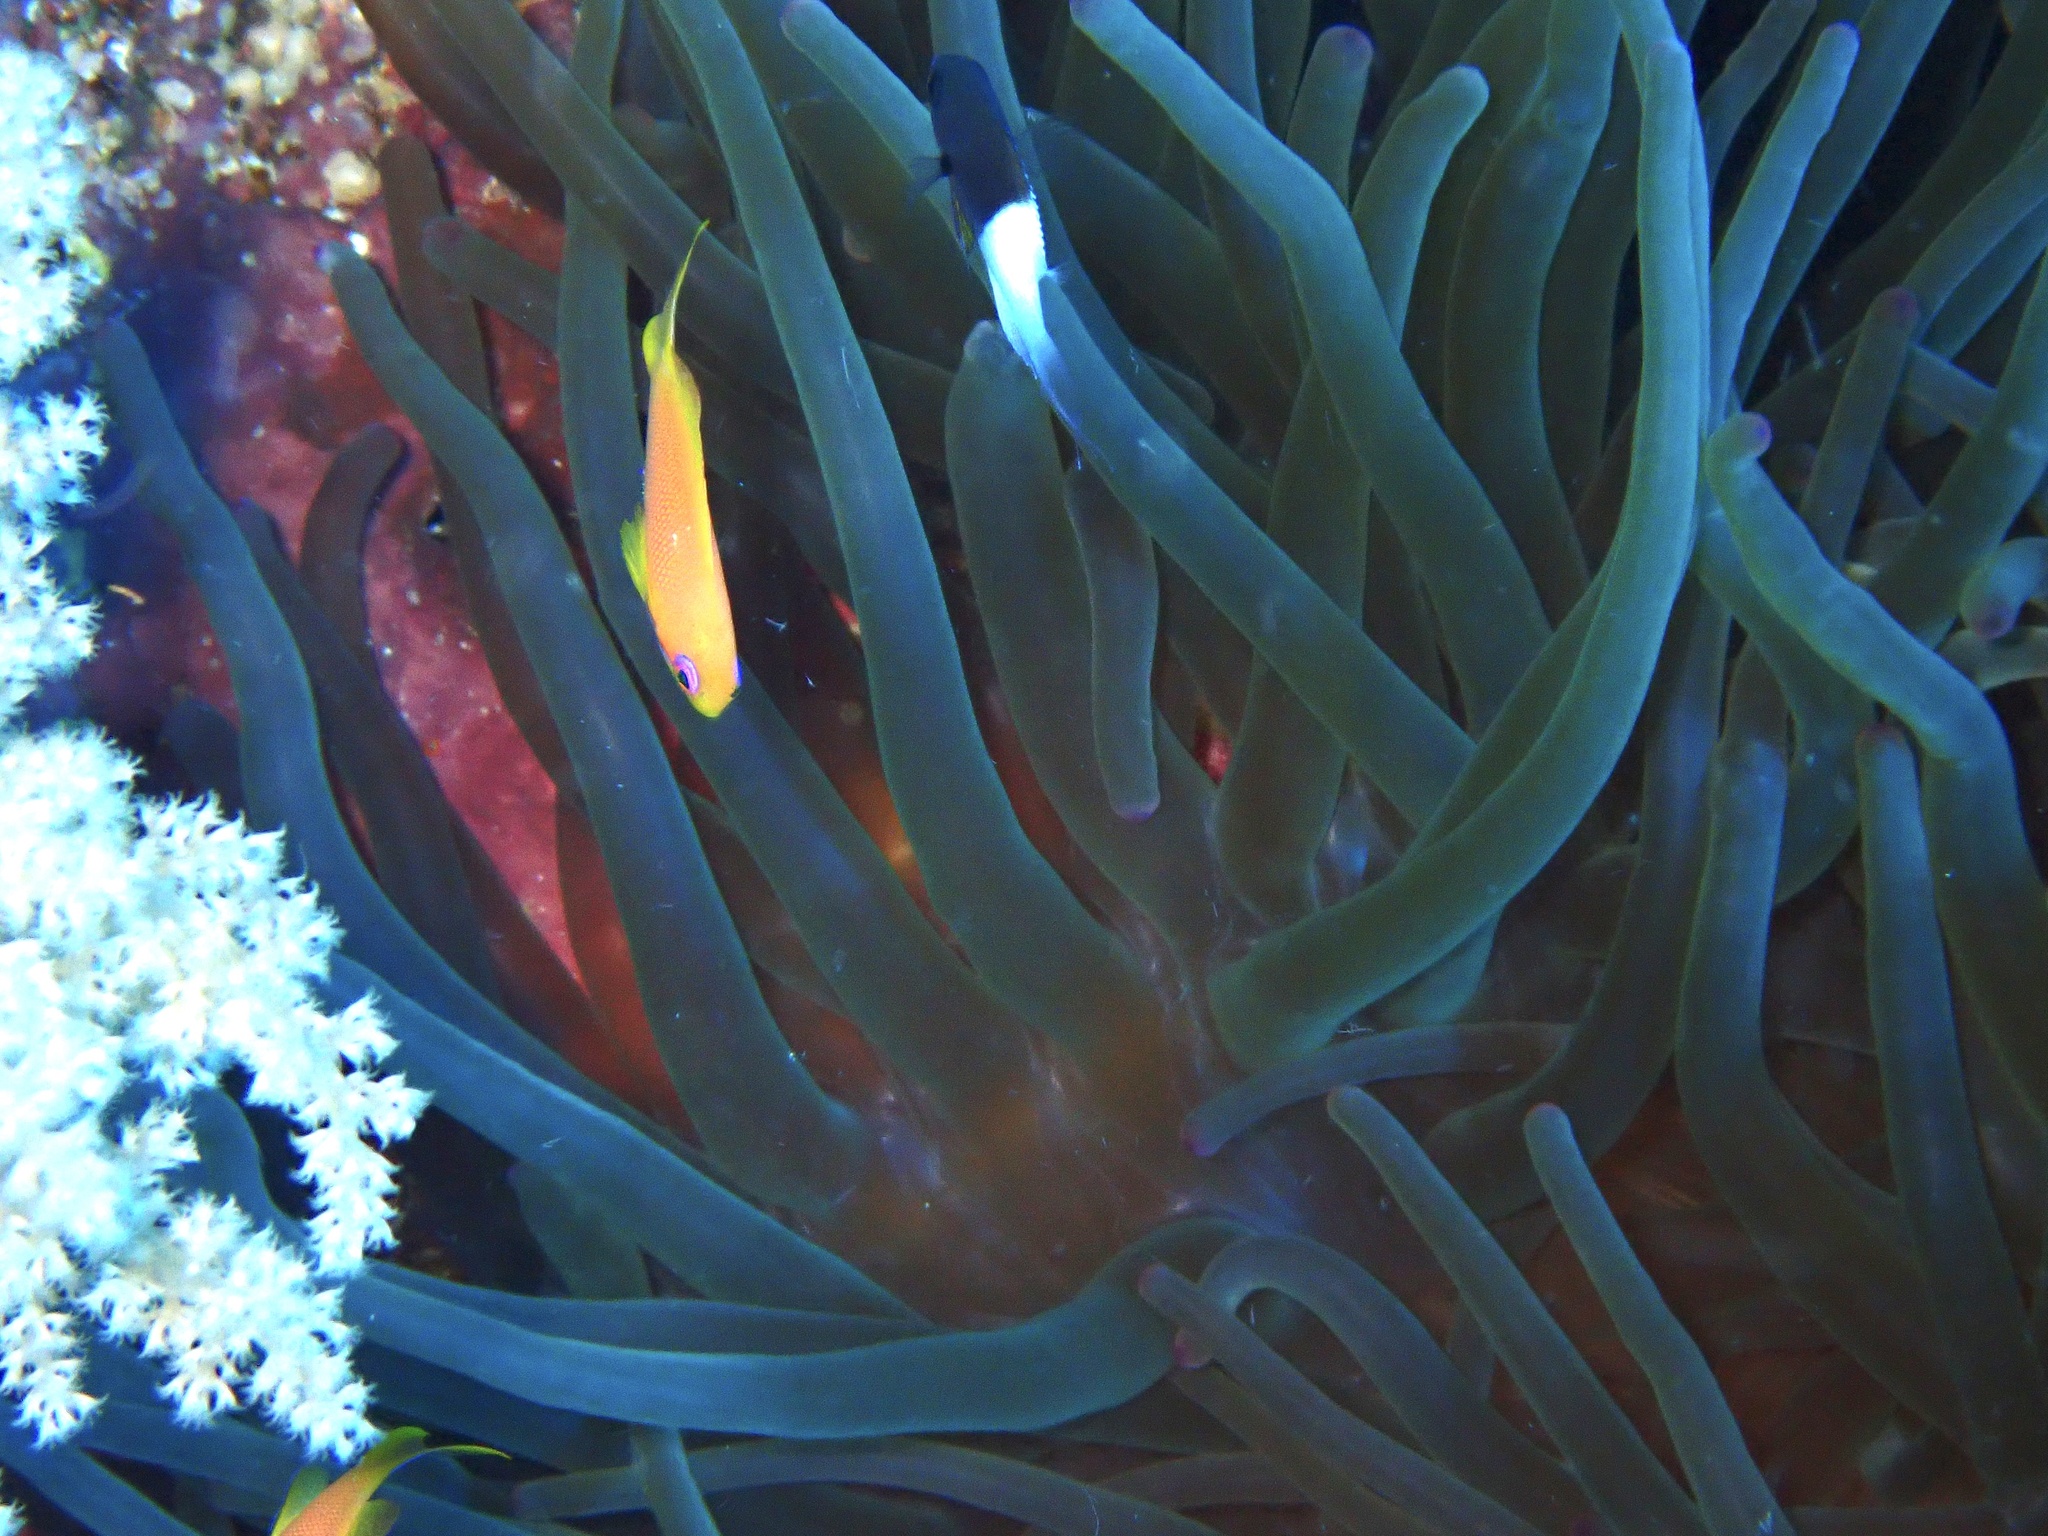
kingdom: Animalia
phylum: Cnidaria
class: Anthozoa
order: Actiniaria
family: Actiniidae
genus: Entacmaea
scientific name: Entacmaea quadricolor
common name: Bulb tentacle sea anemone
